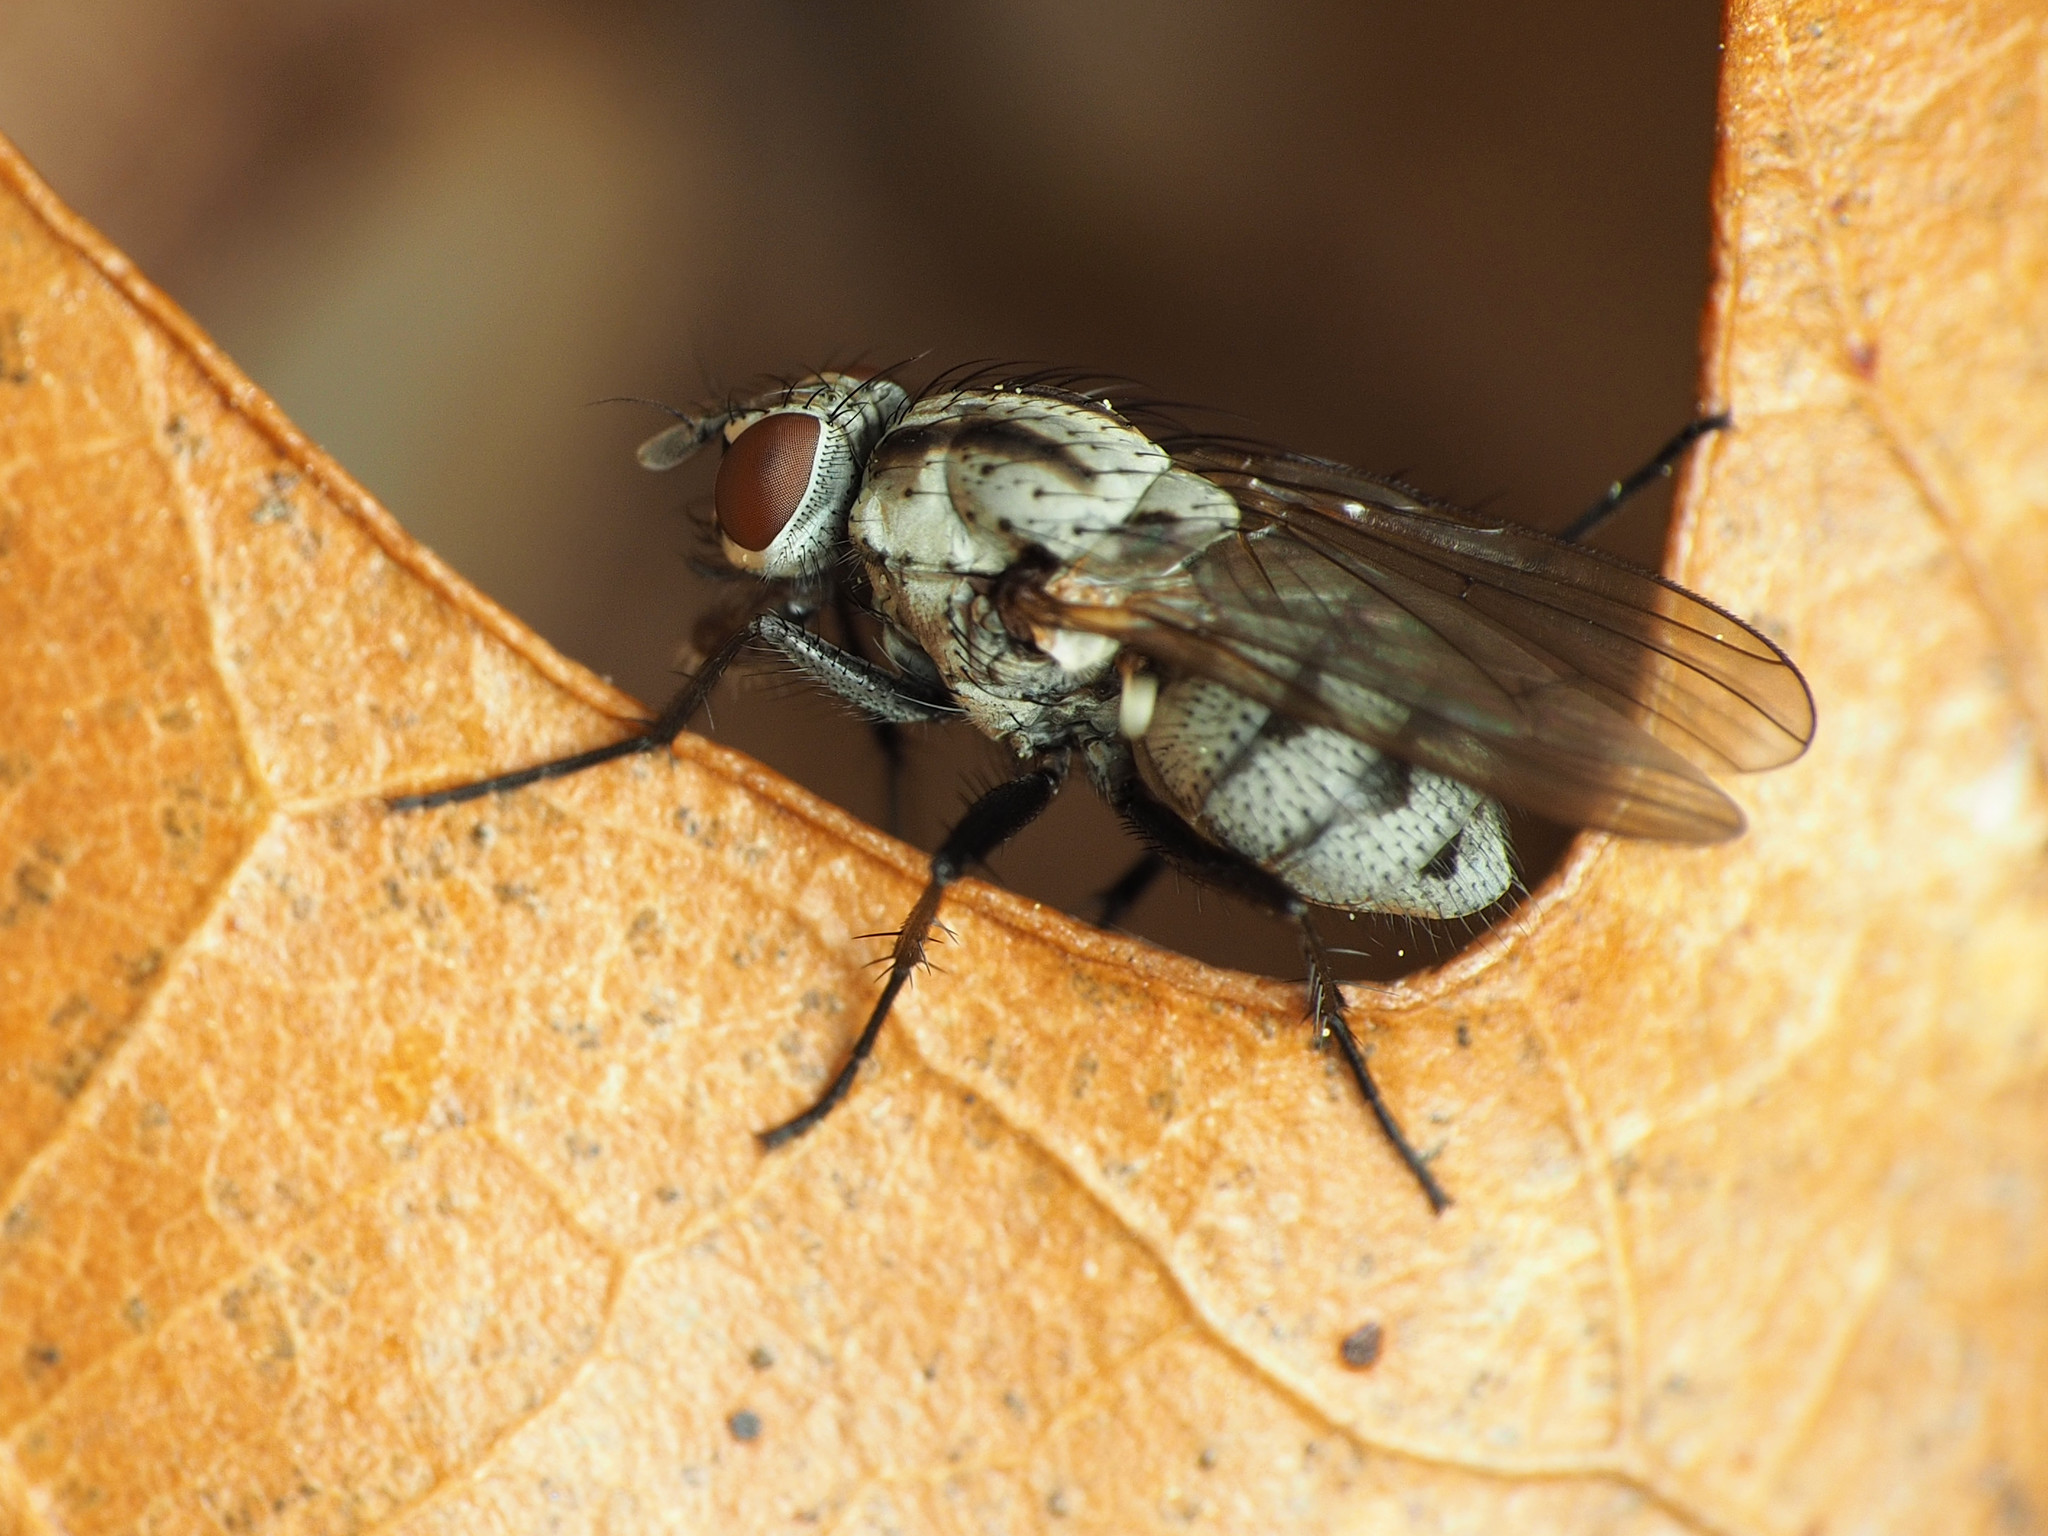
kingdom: Animalia
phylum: Arthropoda
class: Insecta
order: Diptera
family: Anthomyiidae
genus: Anthomyia
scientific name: Anthomyia oculifera
